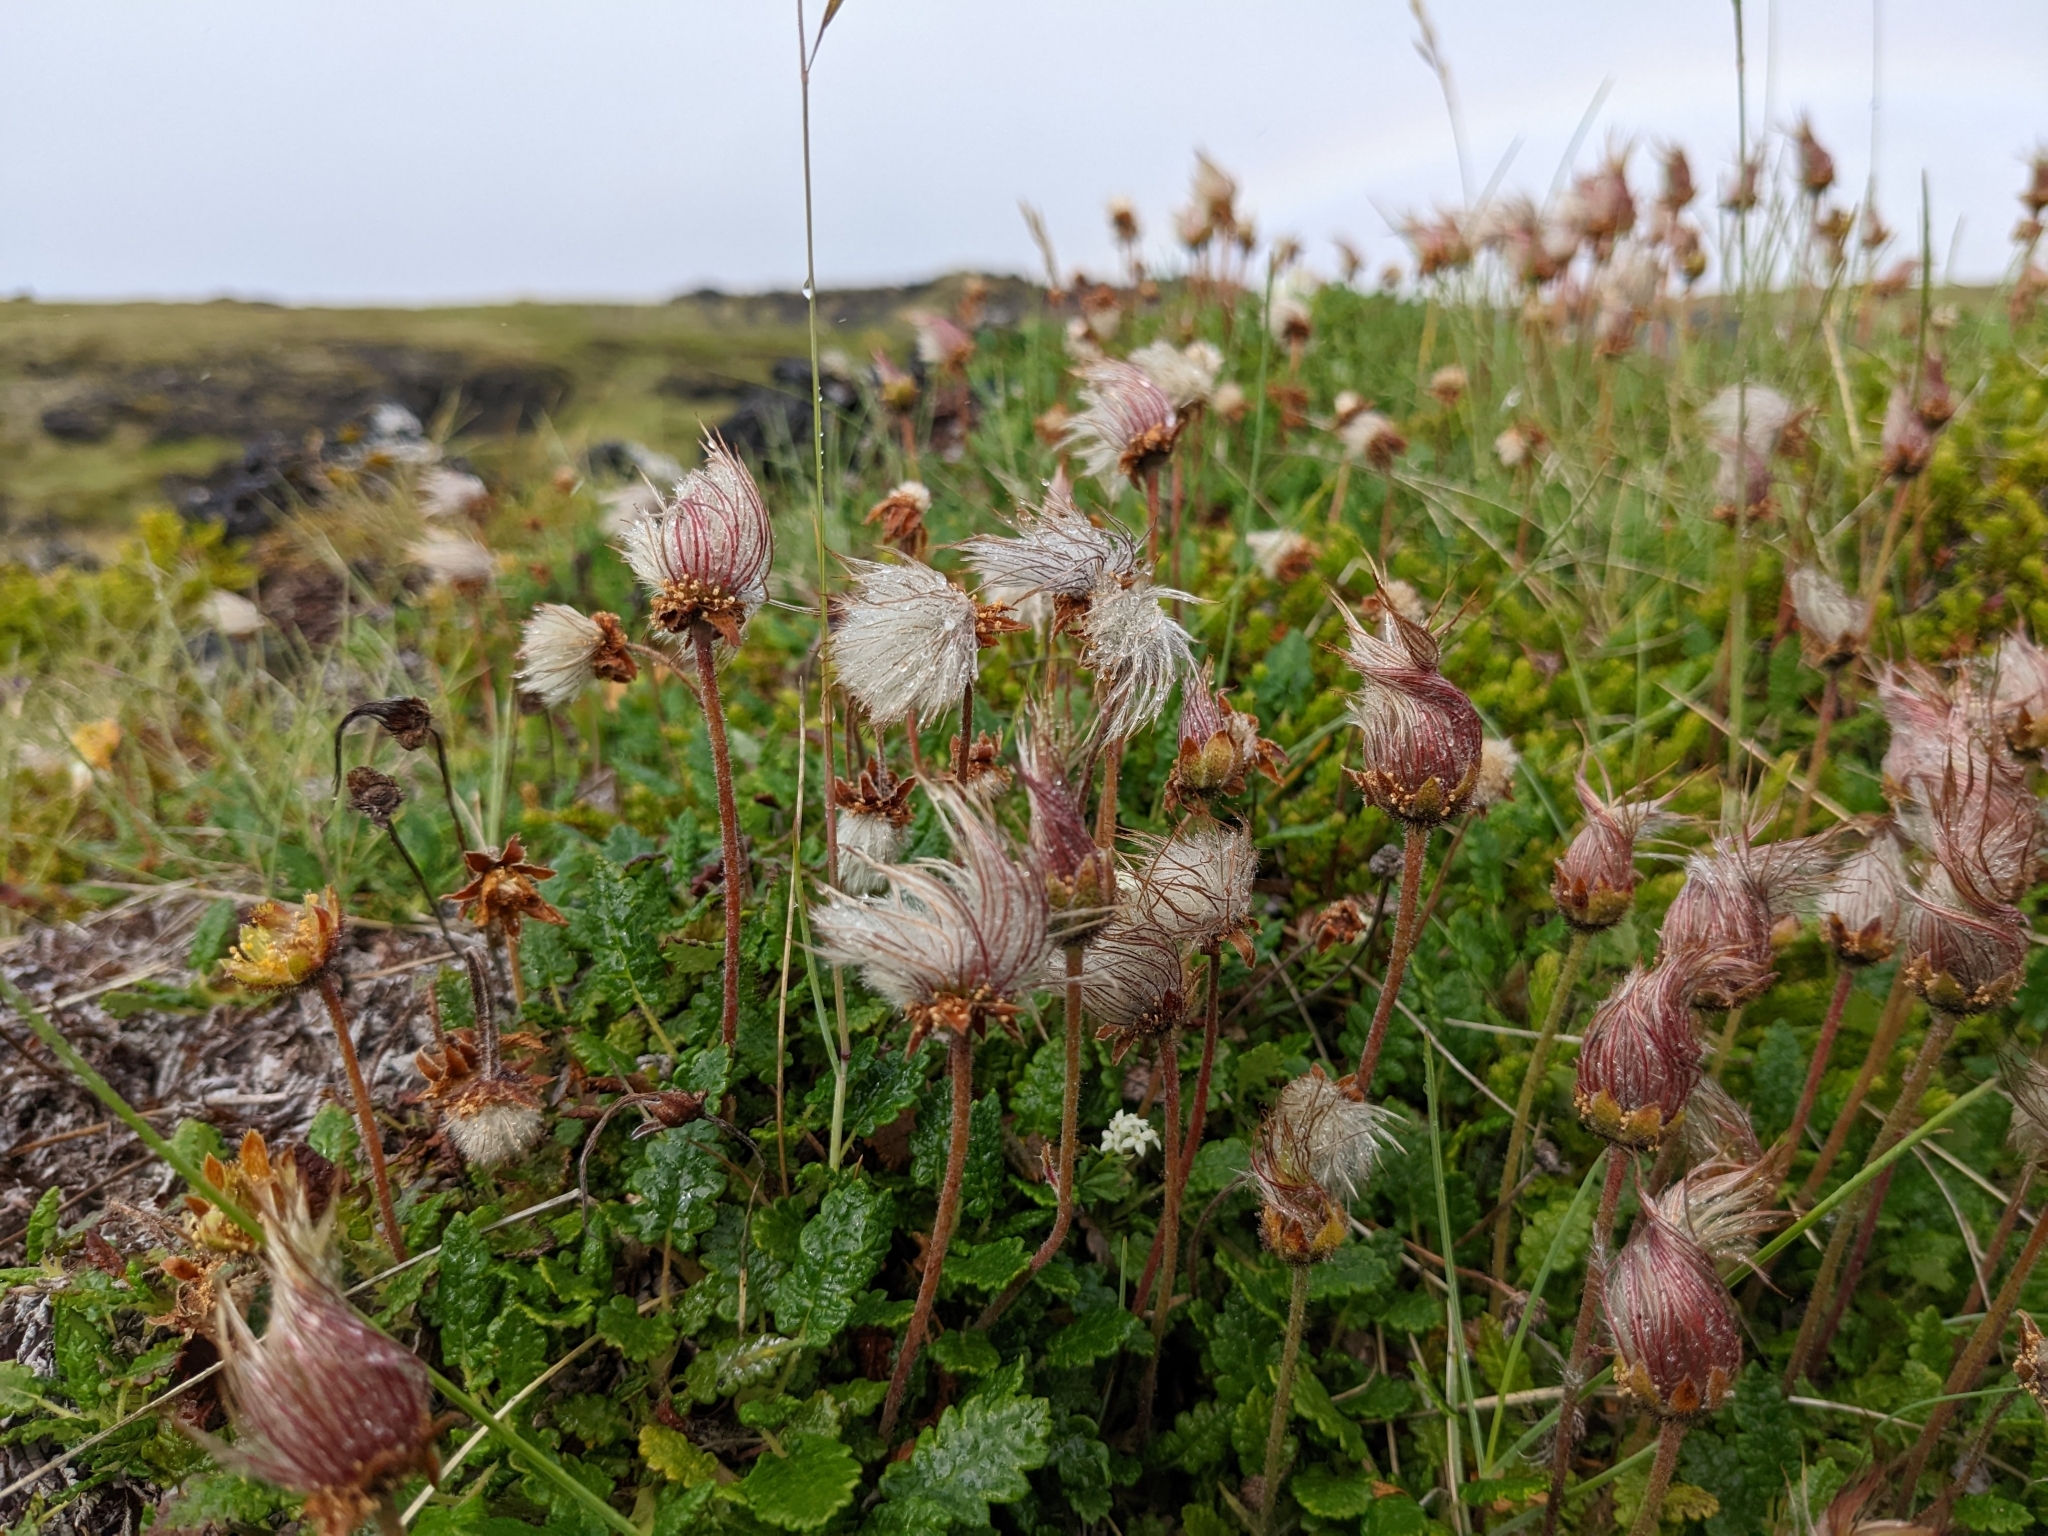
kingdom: Plantae
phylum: Tracheophyta
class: Magnoliopsida
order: Rosales
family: Rosaceae
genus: Dryas
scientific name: Dryas octopetala
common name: Eight-petal mountain-avens
